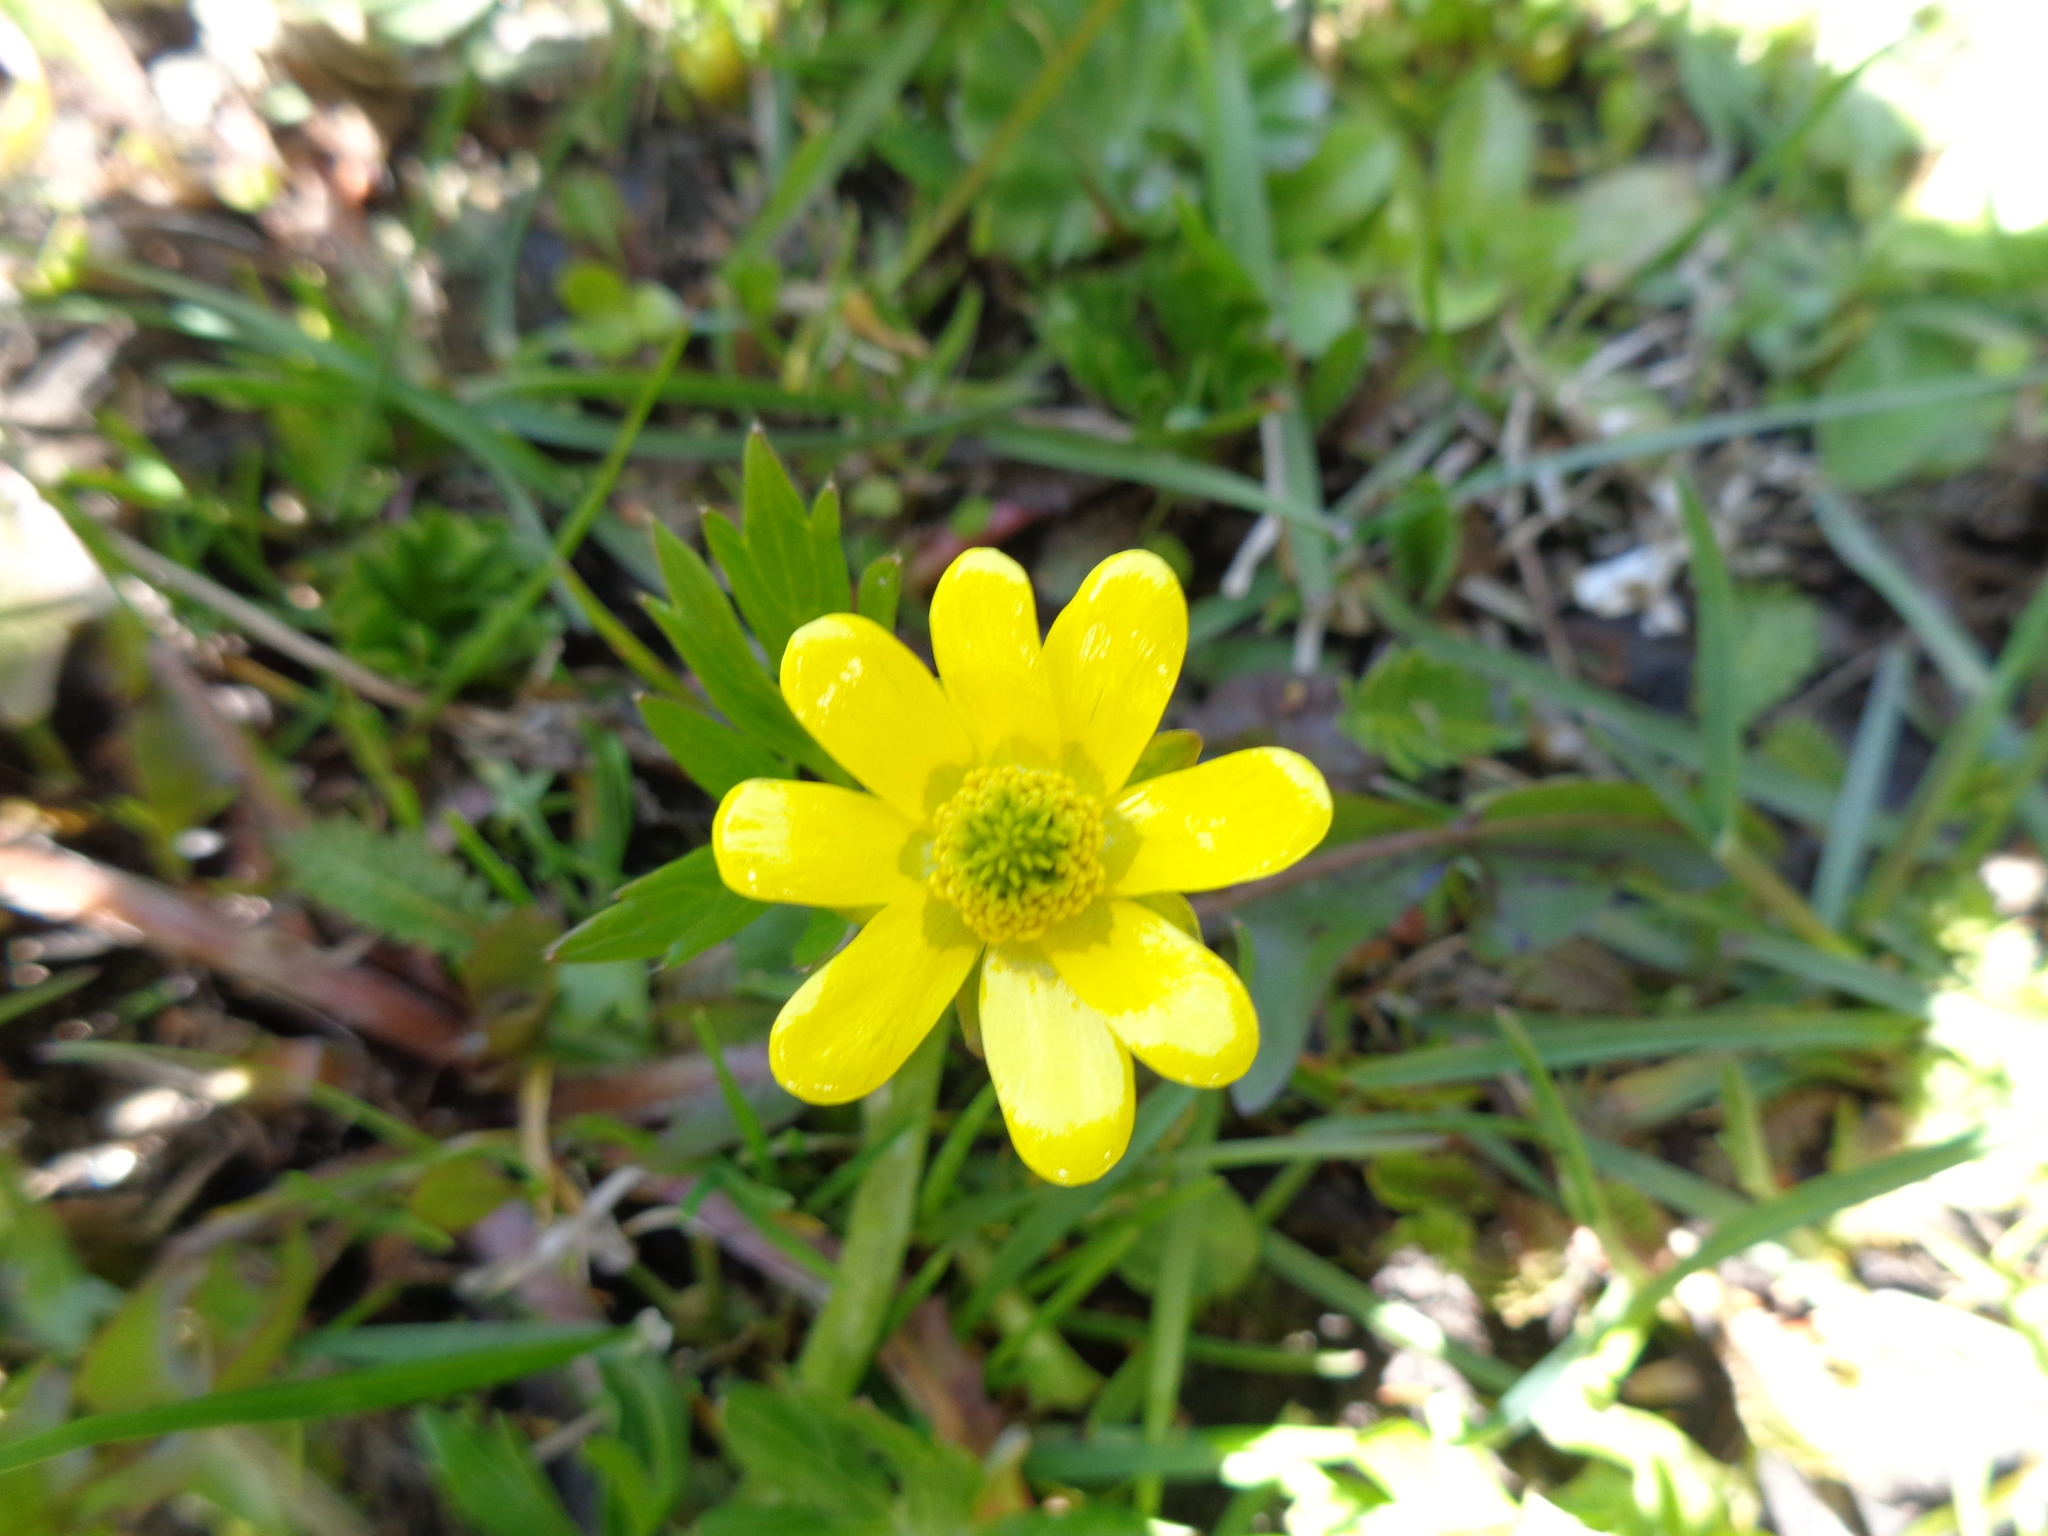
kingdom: Plantae
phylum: Tracheophyta
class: Magnoliopsida
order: Ranunculales
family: Ranunculaceae
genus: Ranunculus
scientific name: Ranunculus peduncularis
